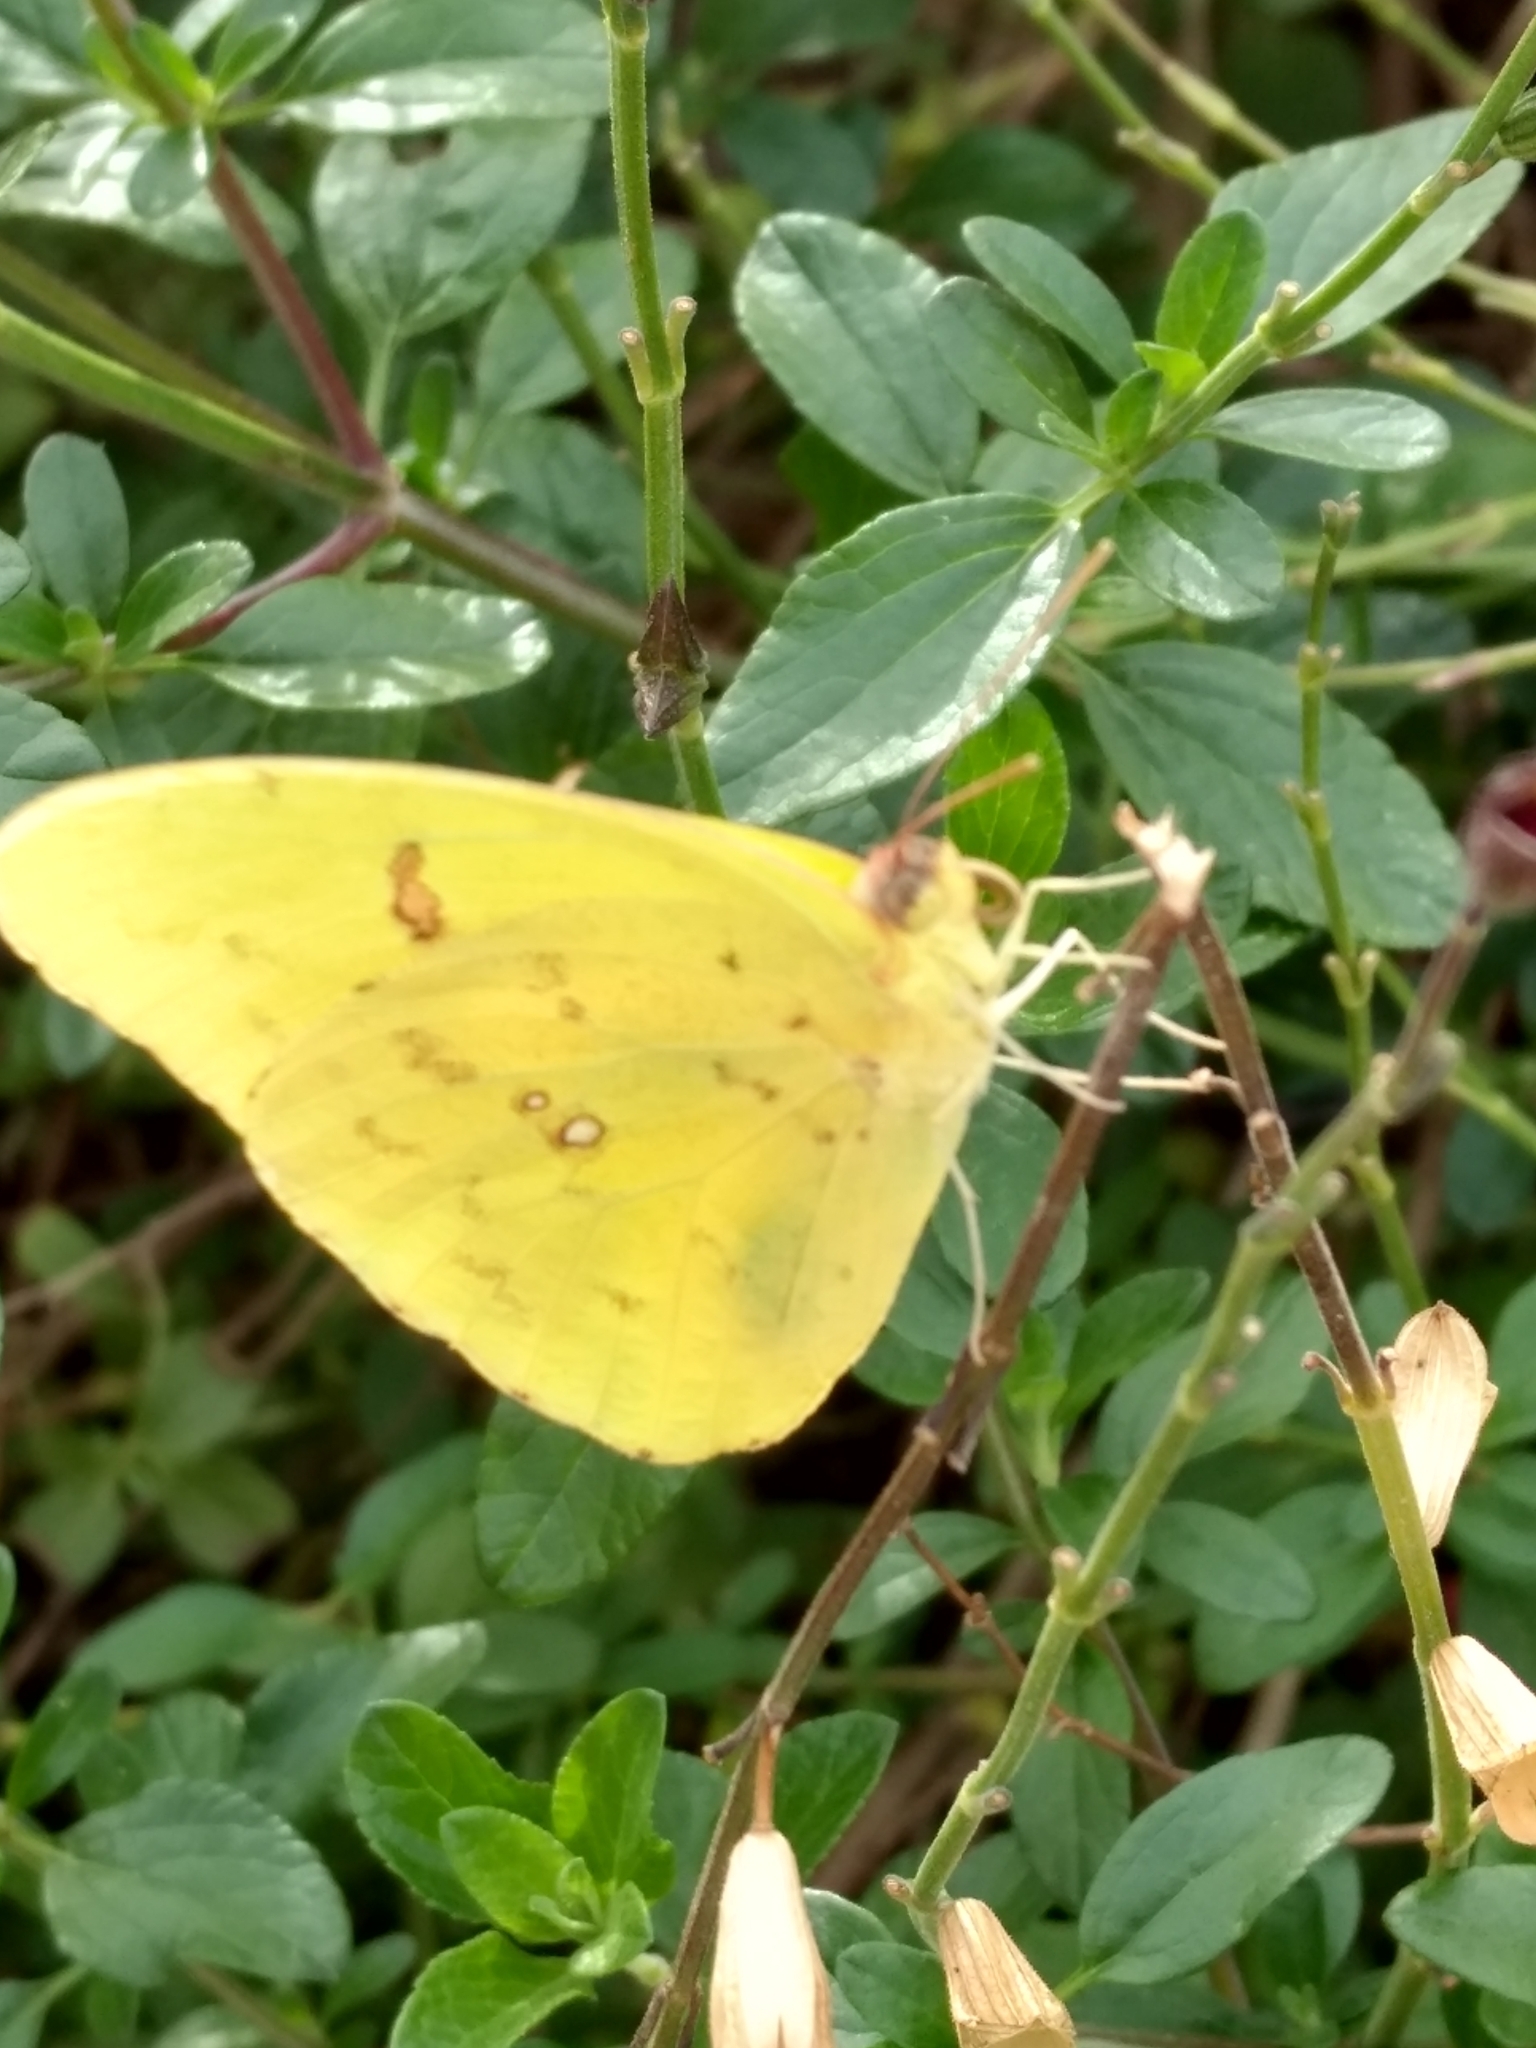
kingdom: Animalia
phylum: Arthropoda
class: Insecta
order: Lepidoptera
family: Pieridae
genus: Phoebis
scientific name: Phoebis sennae
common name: Cloudless sulphur
